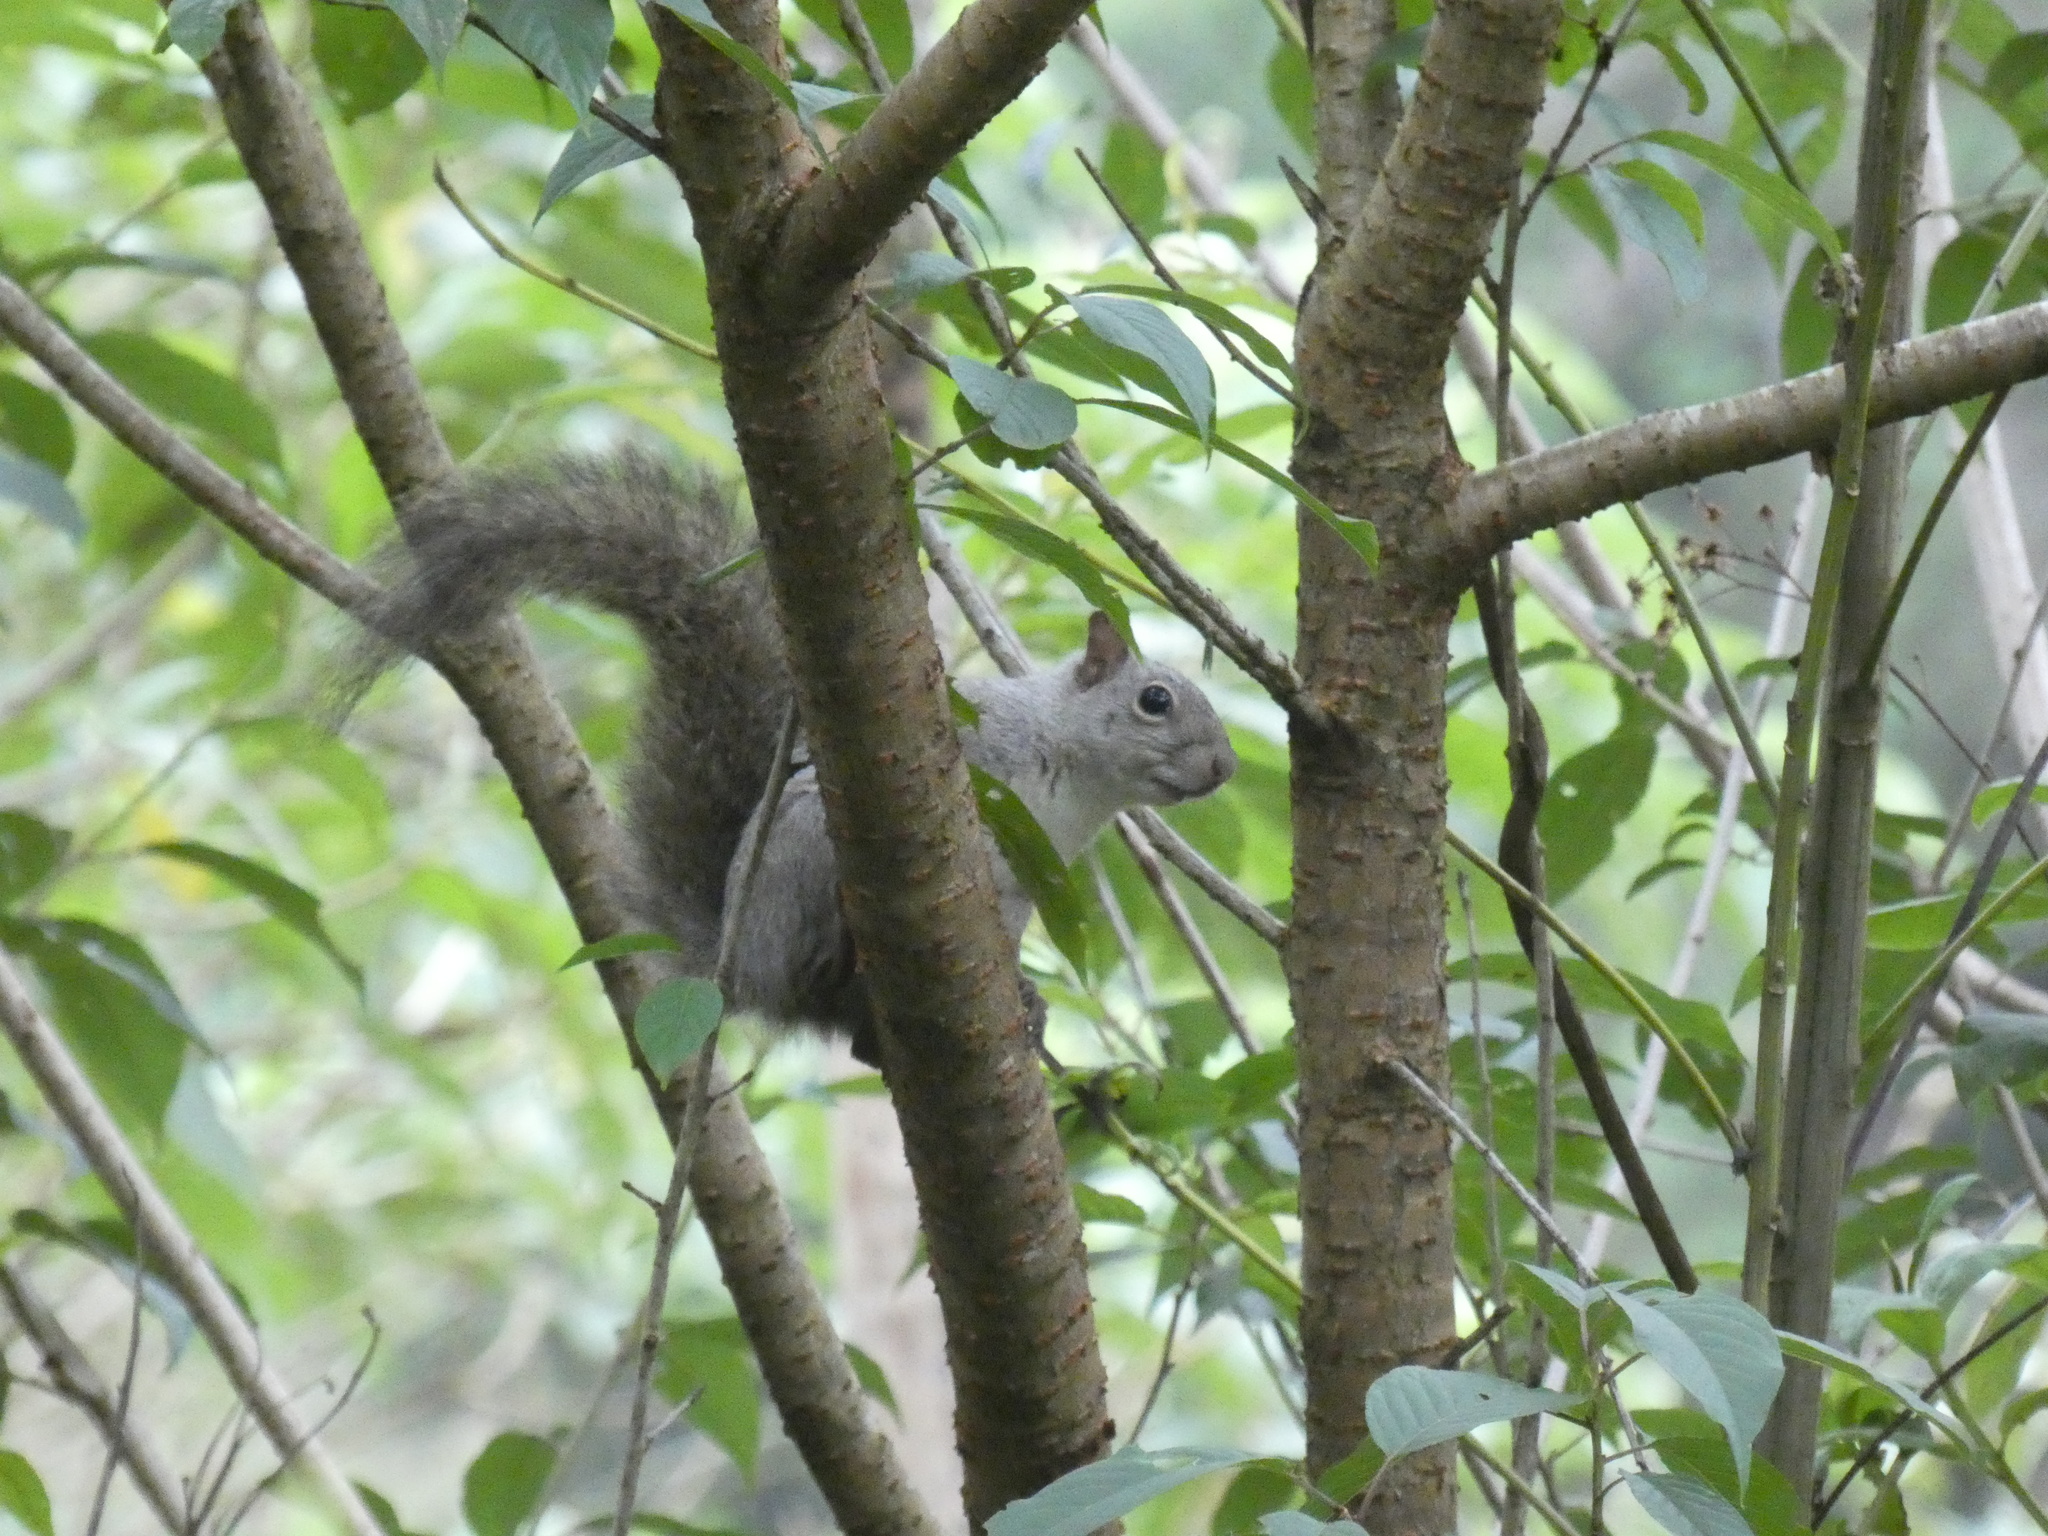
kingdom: Animalia
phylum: Chordata
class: Mammalia
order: Rodentia
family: Sciuridae
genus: Sciurus
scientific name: Sciurus aestuans
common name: Guianan squirrel
